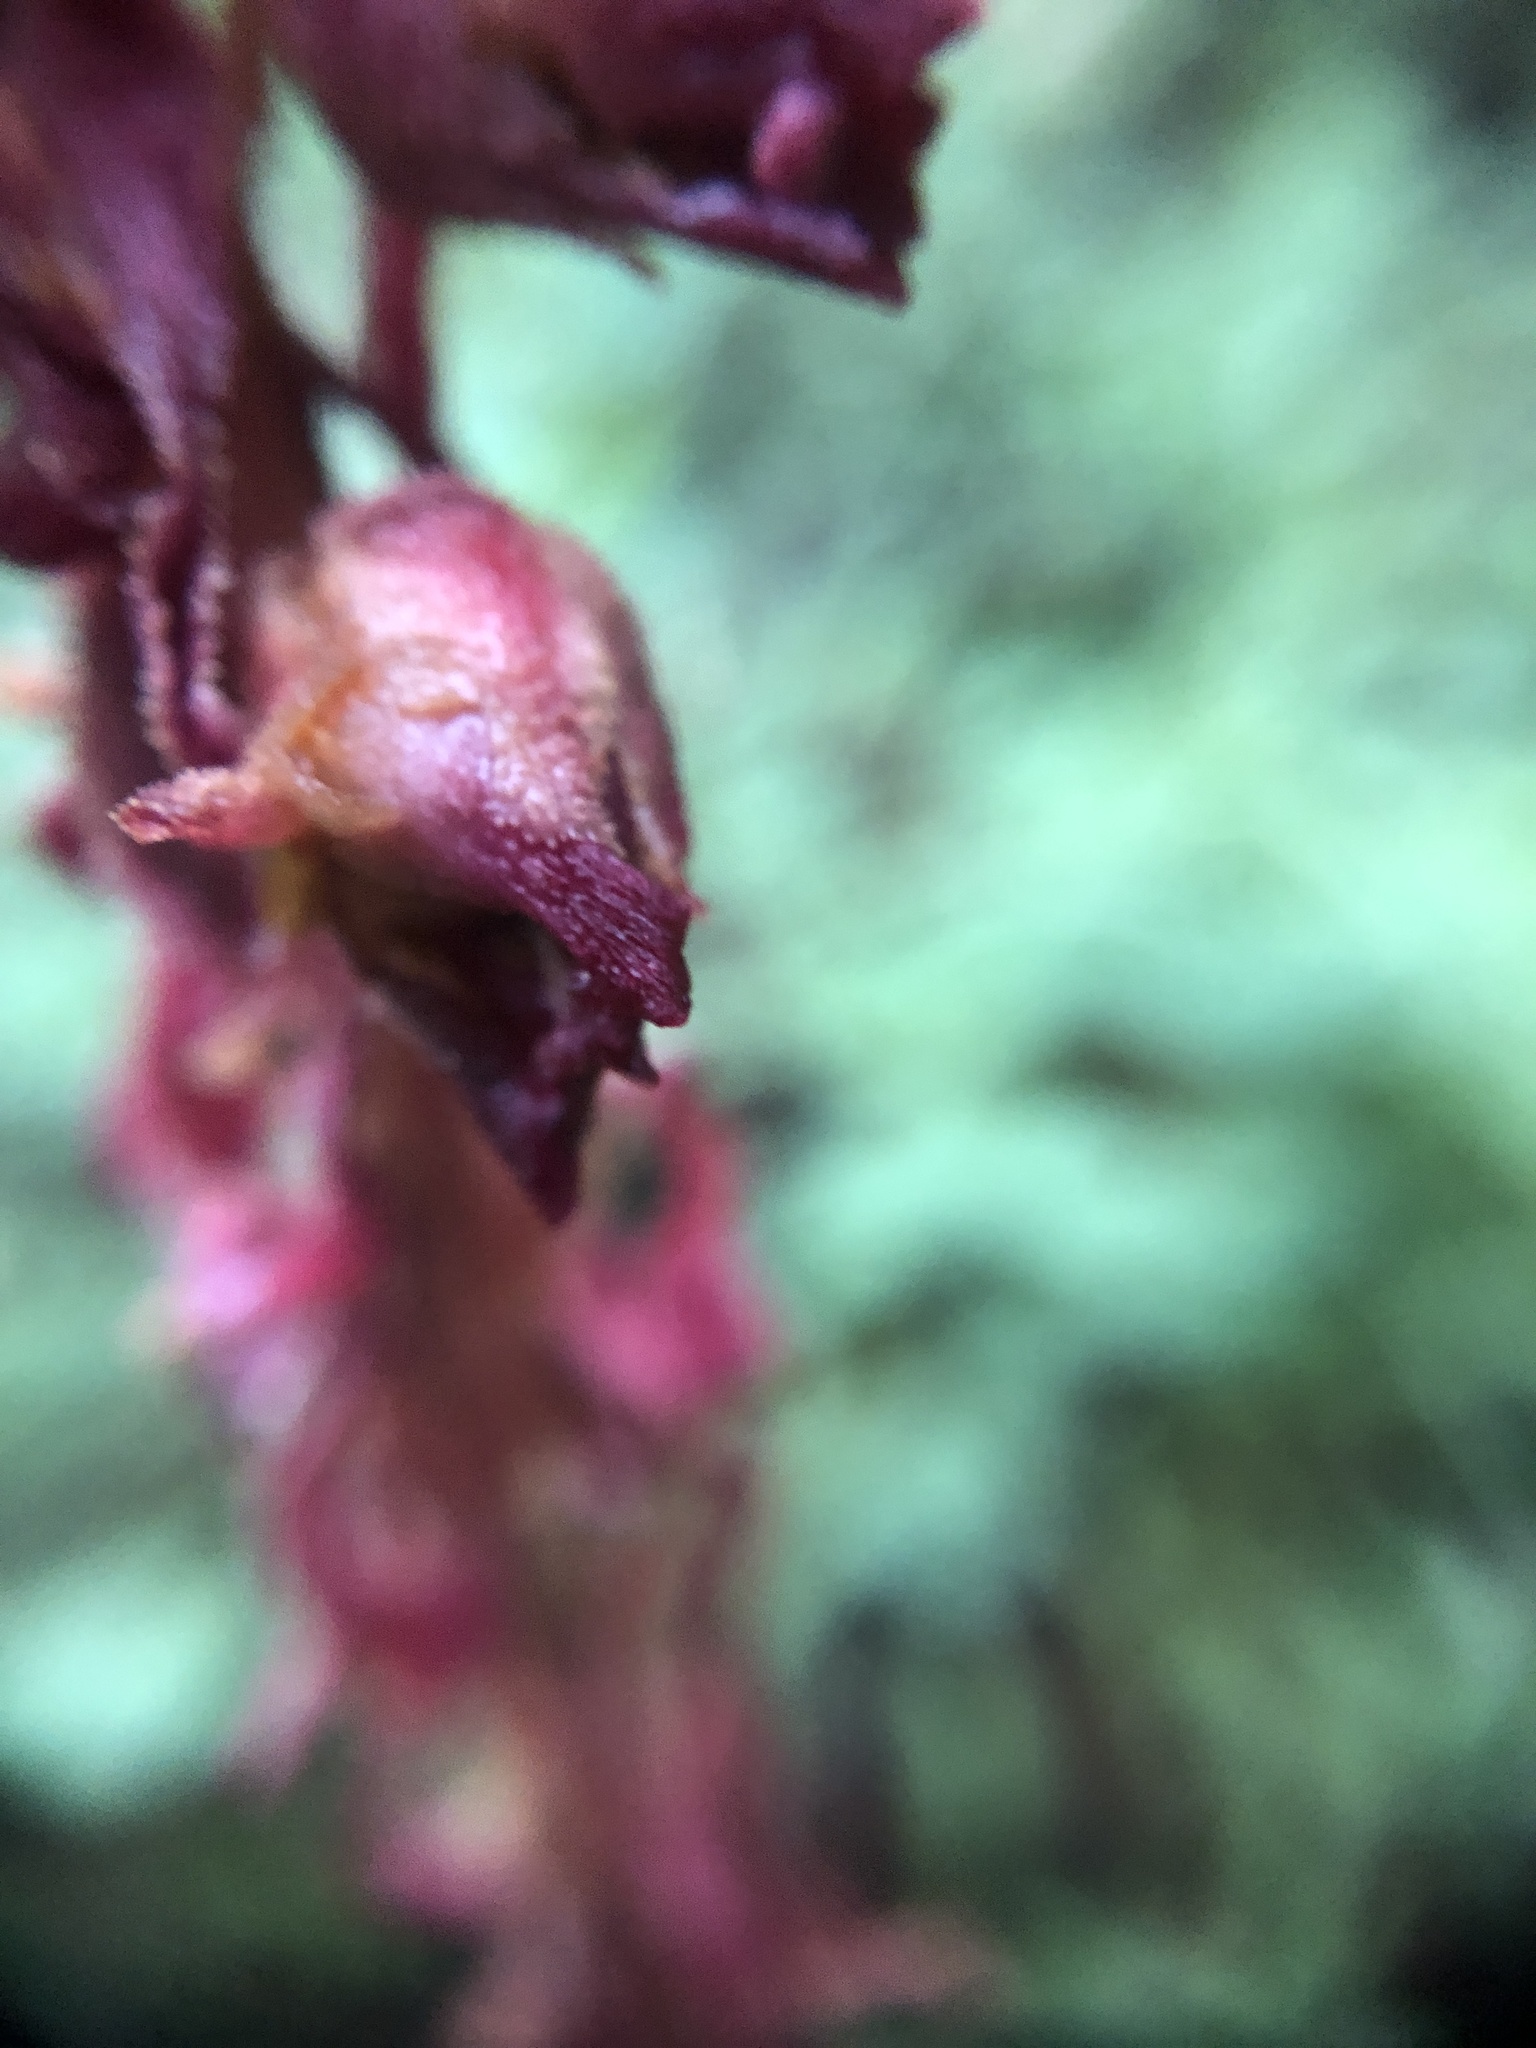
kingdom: Plantae
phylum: Tracheophyta
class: Magnoliopsida
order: Ericales
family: Ericaceae
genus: Sarcodes
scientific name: Sarcodes sanguinea
